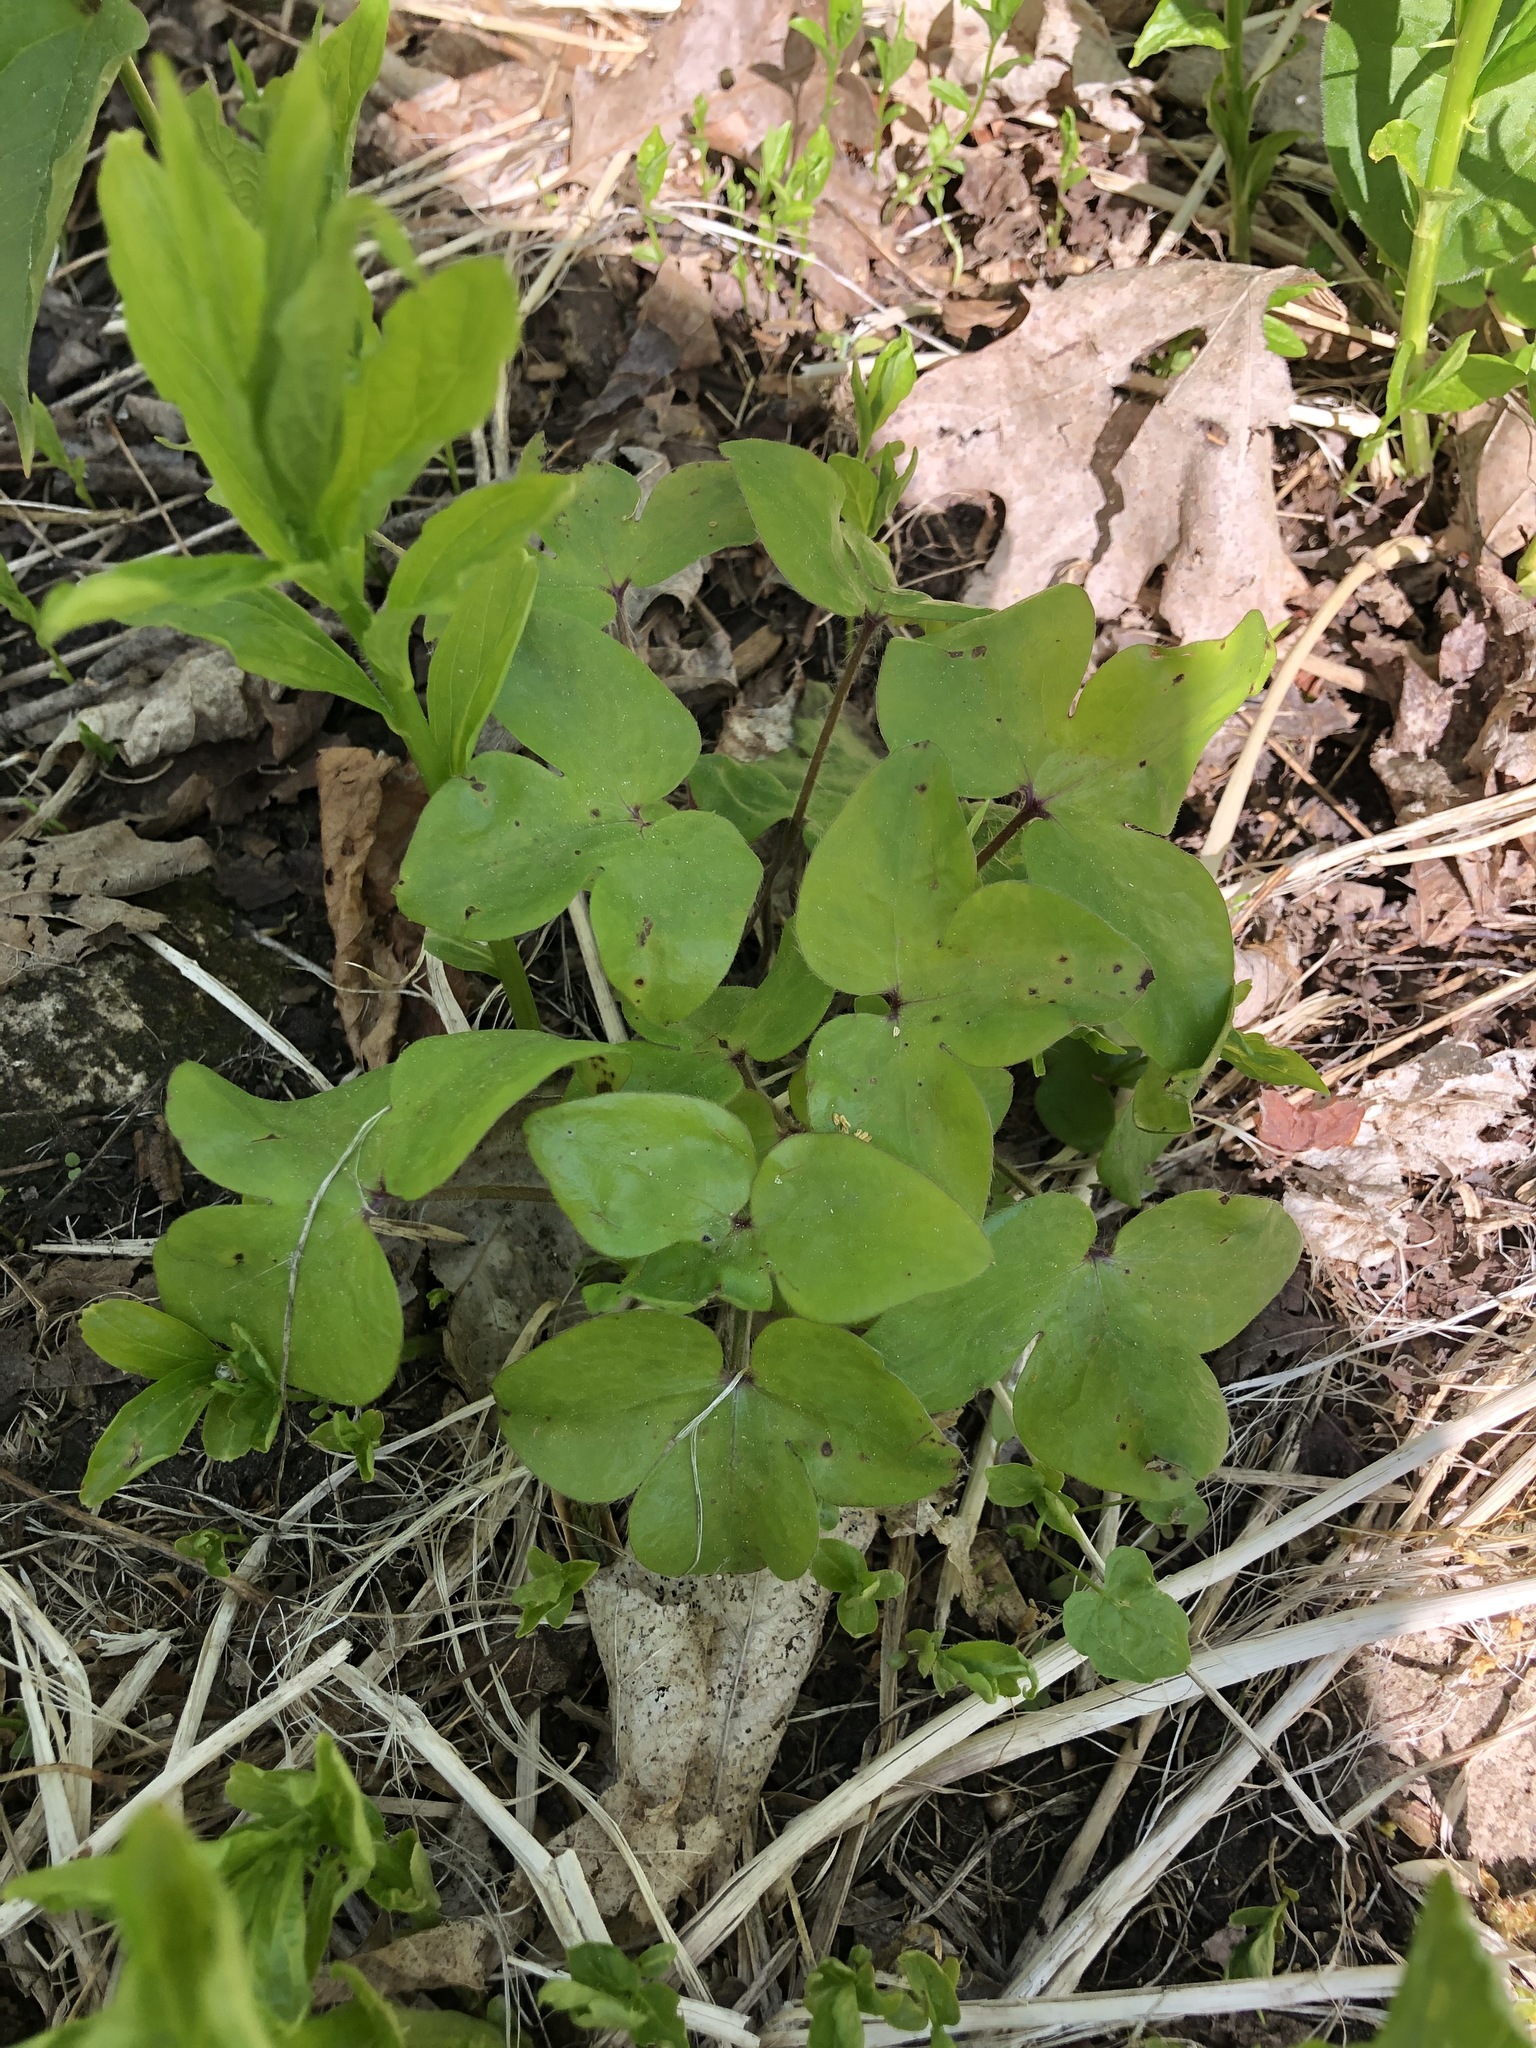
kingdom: Plantae
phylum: Tracheophyta
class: Magnoliopsida
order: Ranunculales
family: Ranunculaceae
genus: Hepatica
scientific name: Hepatica acutiloba
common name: Sharp-lobed hepatica
